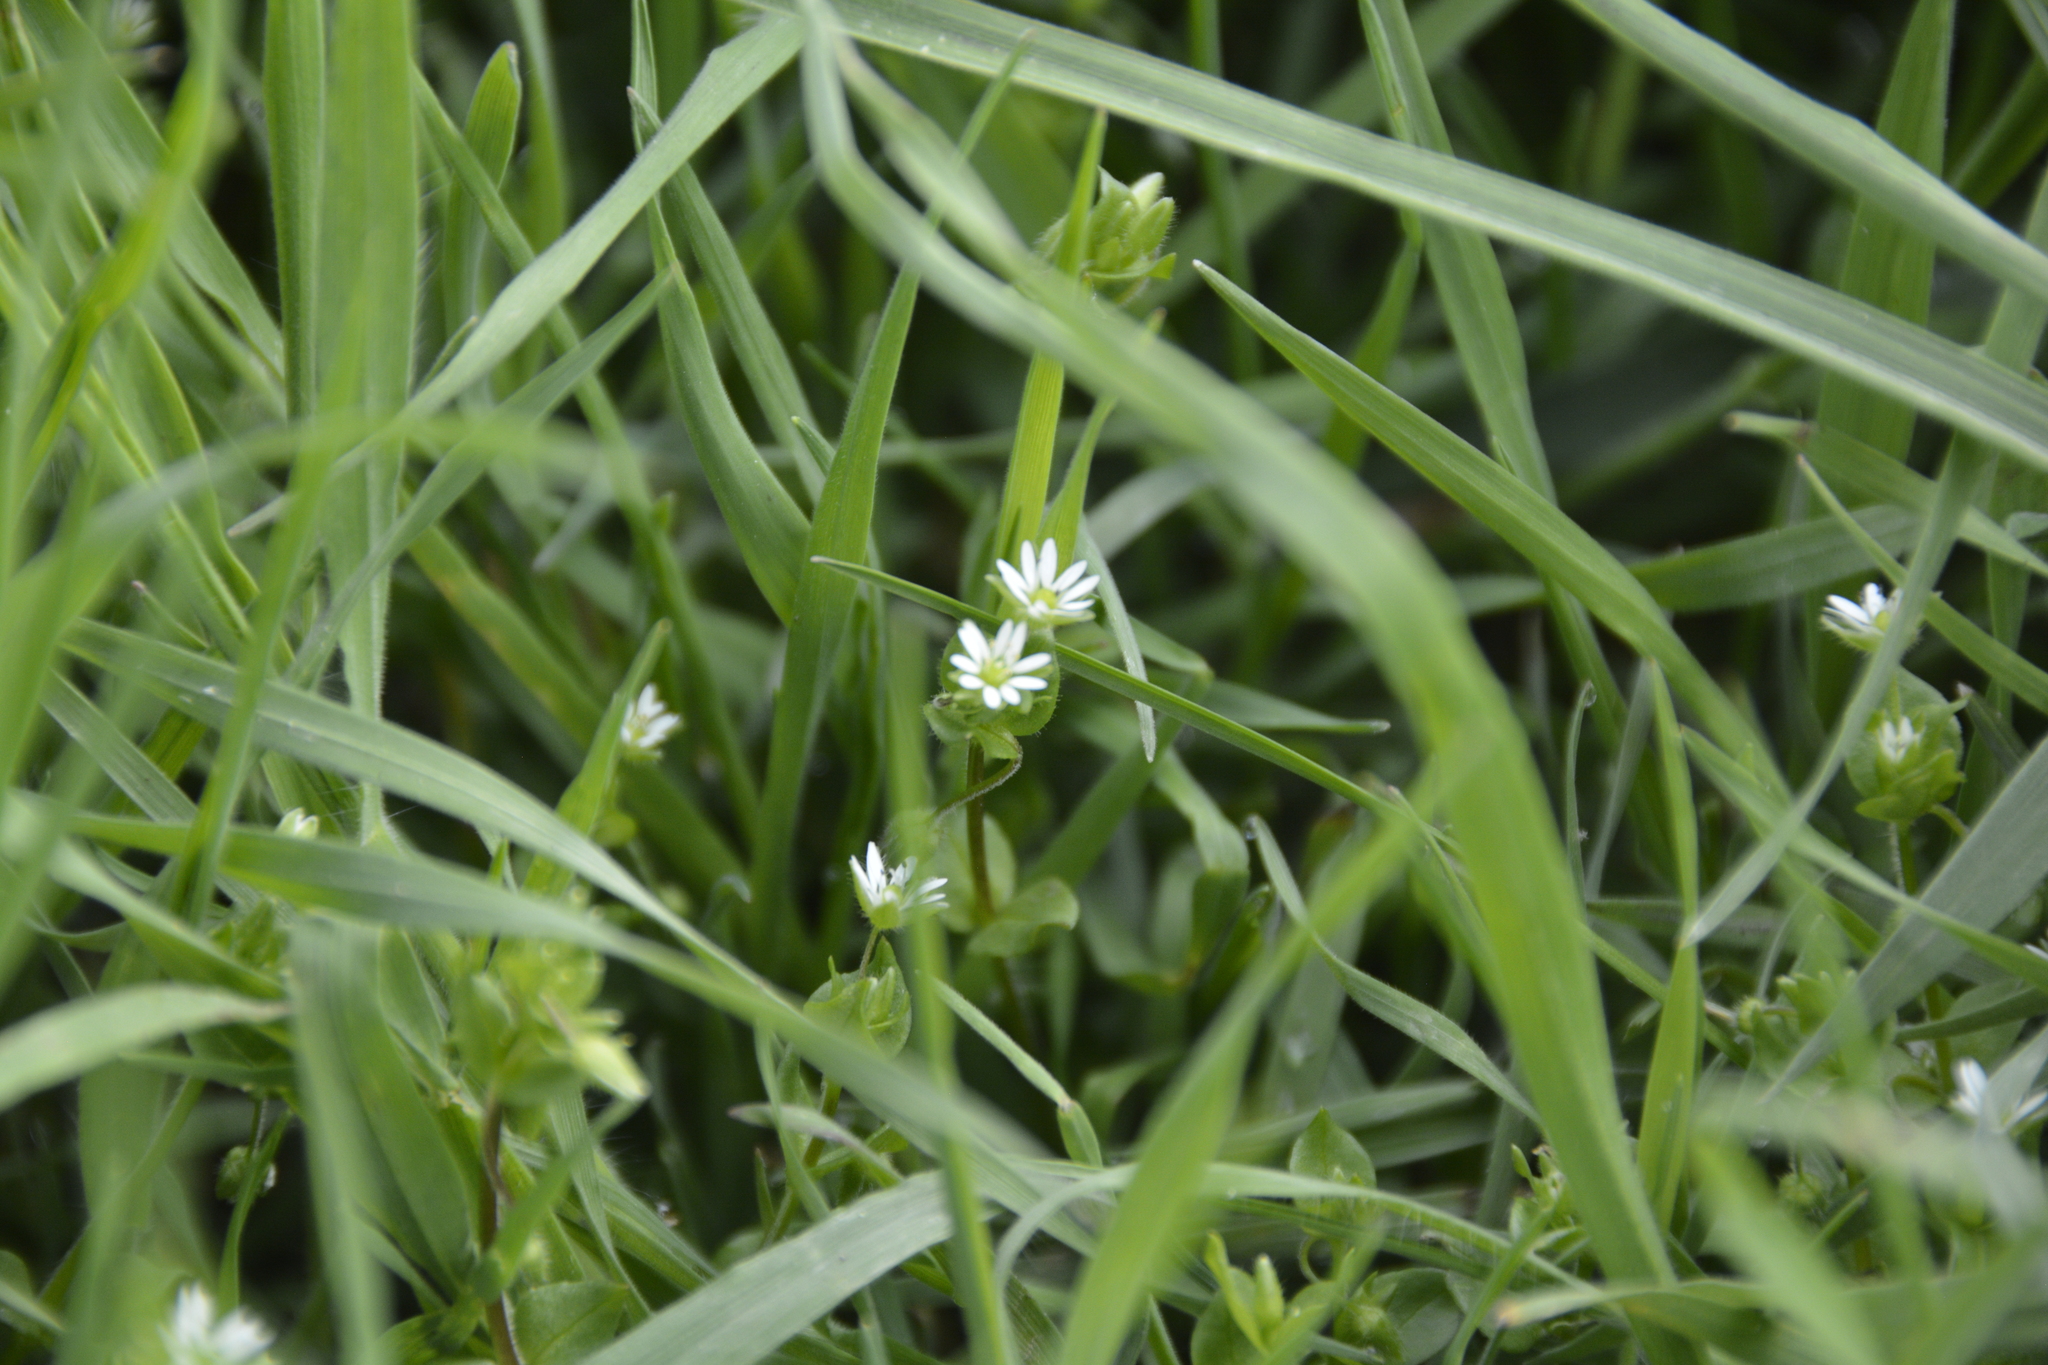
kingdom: Plantae
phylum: Tracheophyta
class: Magnoliopsida
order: Caryophyllales
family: Caryophyllaceae
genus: Stellaria
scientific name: Stellaria media
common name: Common chickweed
